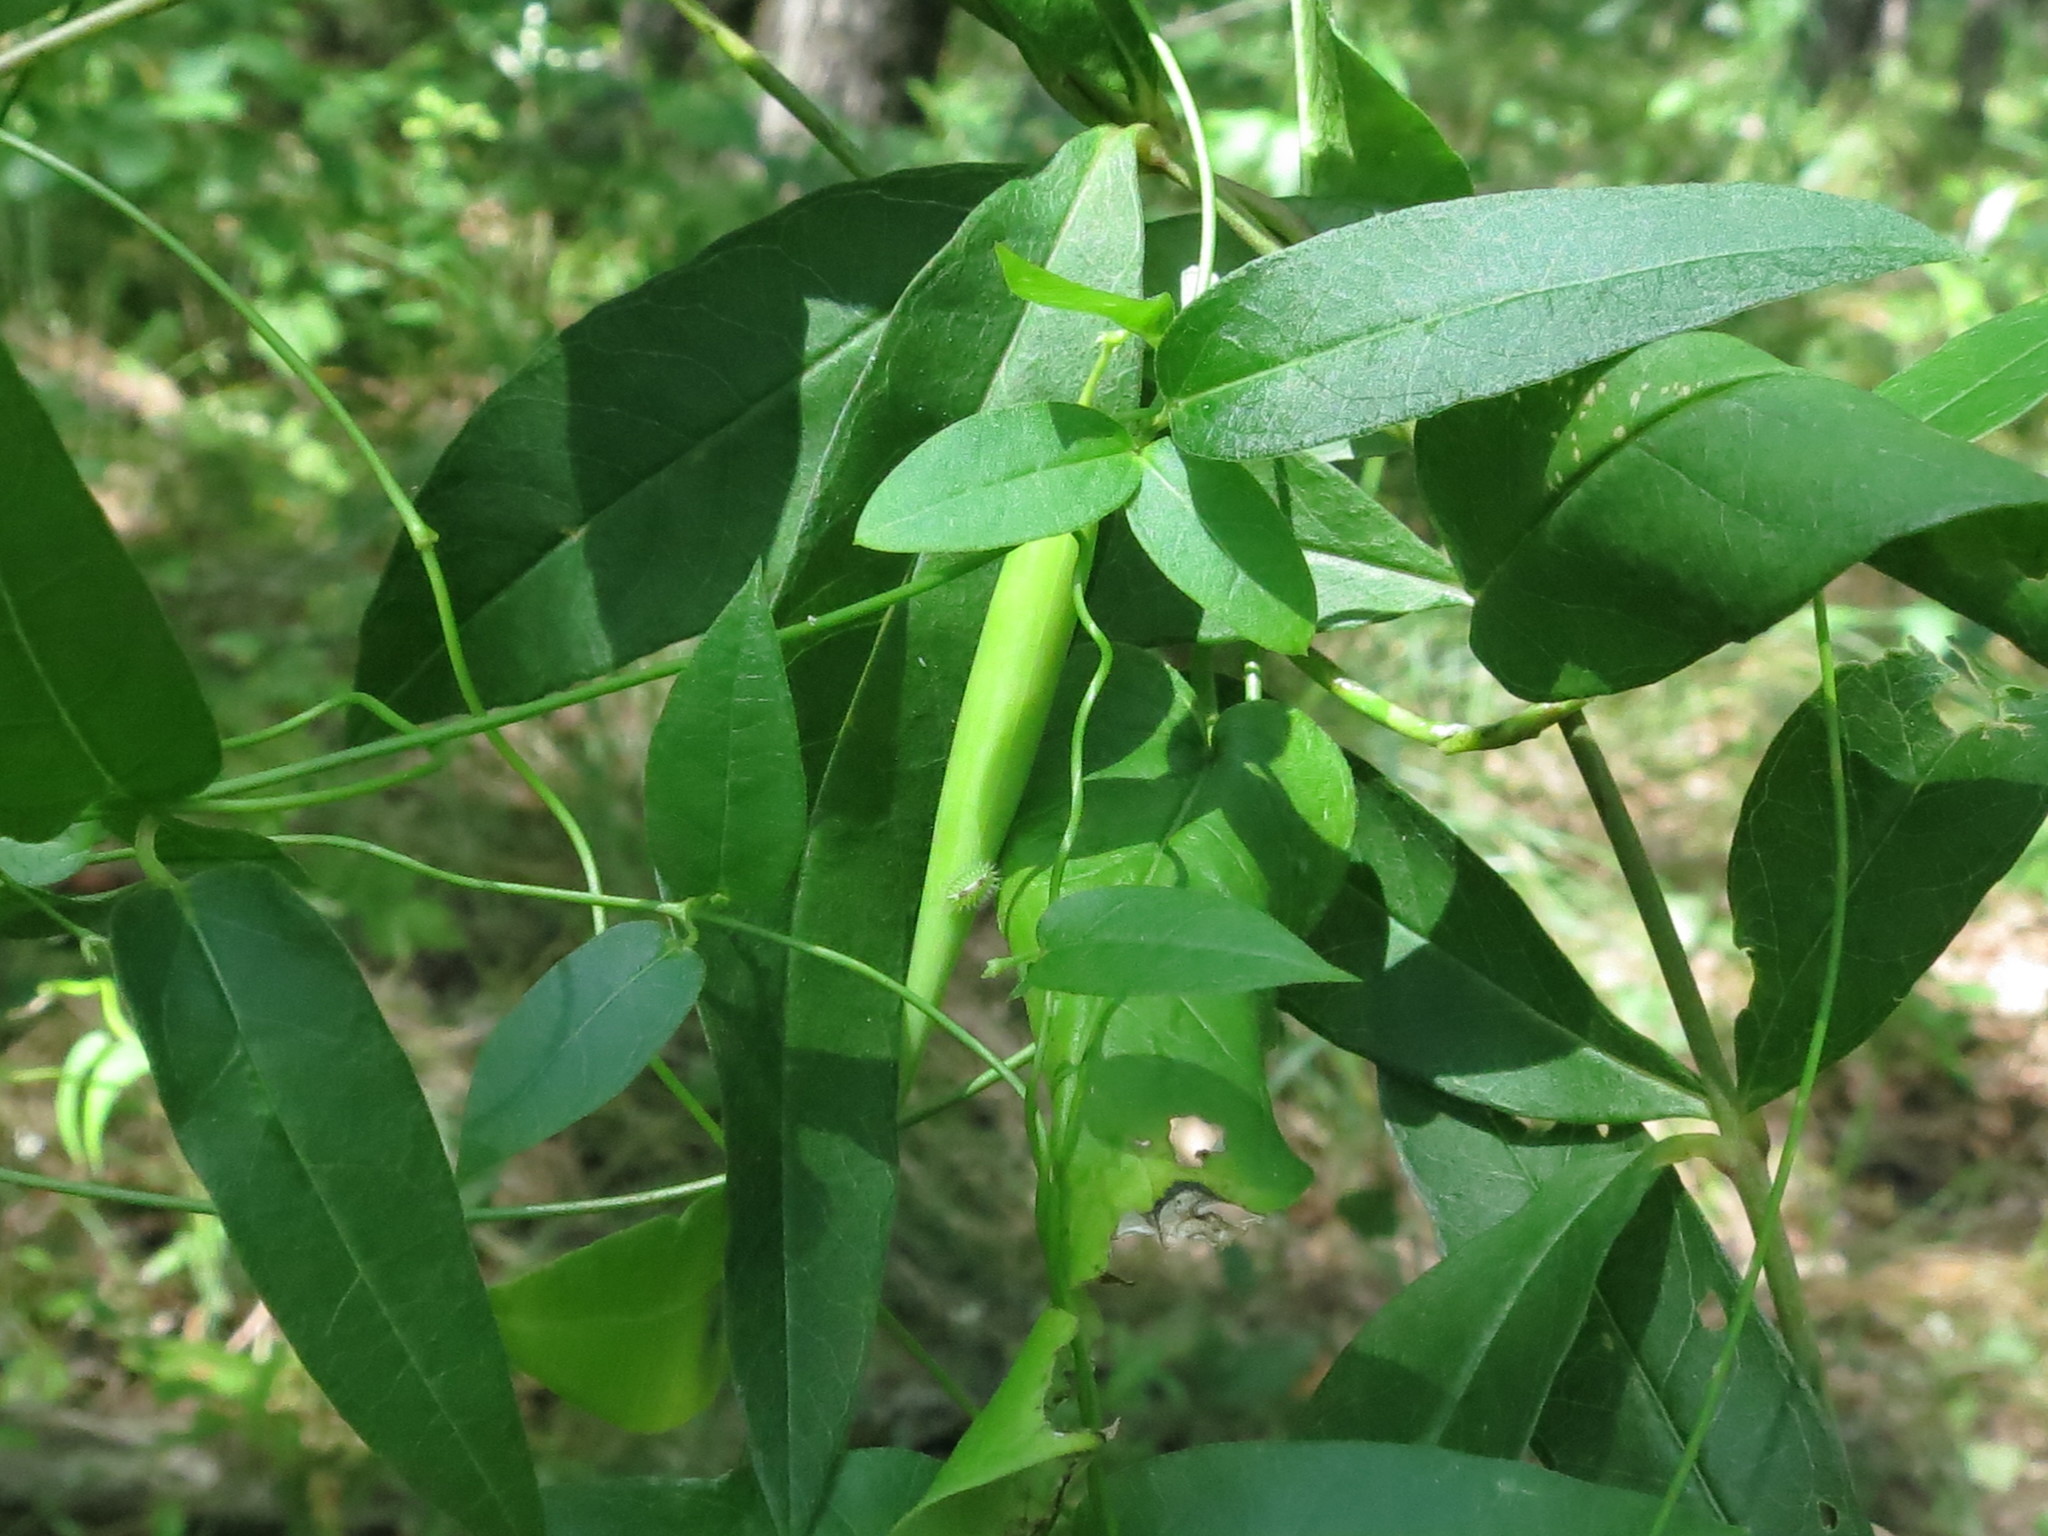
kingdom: Plantae
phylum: Tracheophyta
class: Magnoliopsida
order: Gentianales
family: Apocynaceae
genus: Vincetoxicum
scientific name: Vincetoxicum volubile
